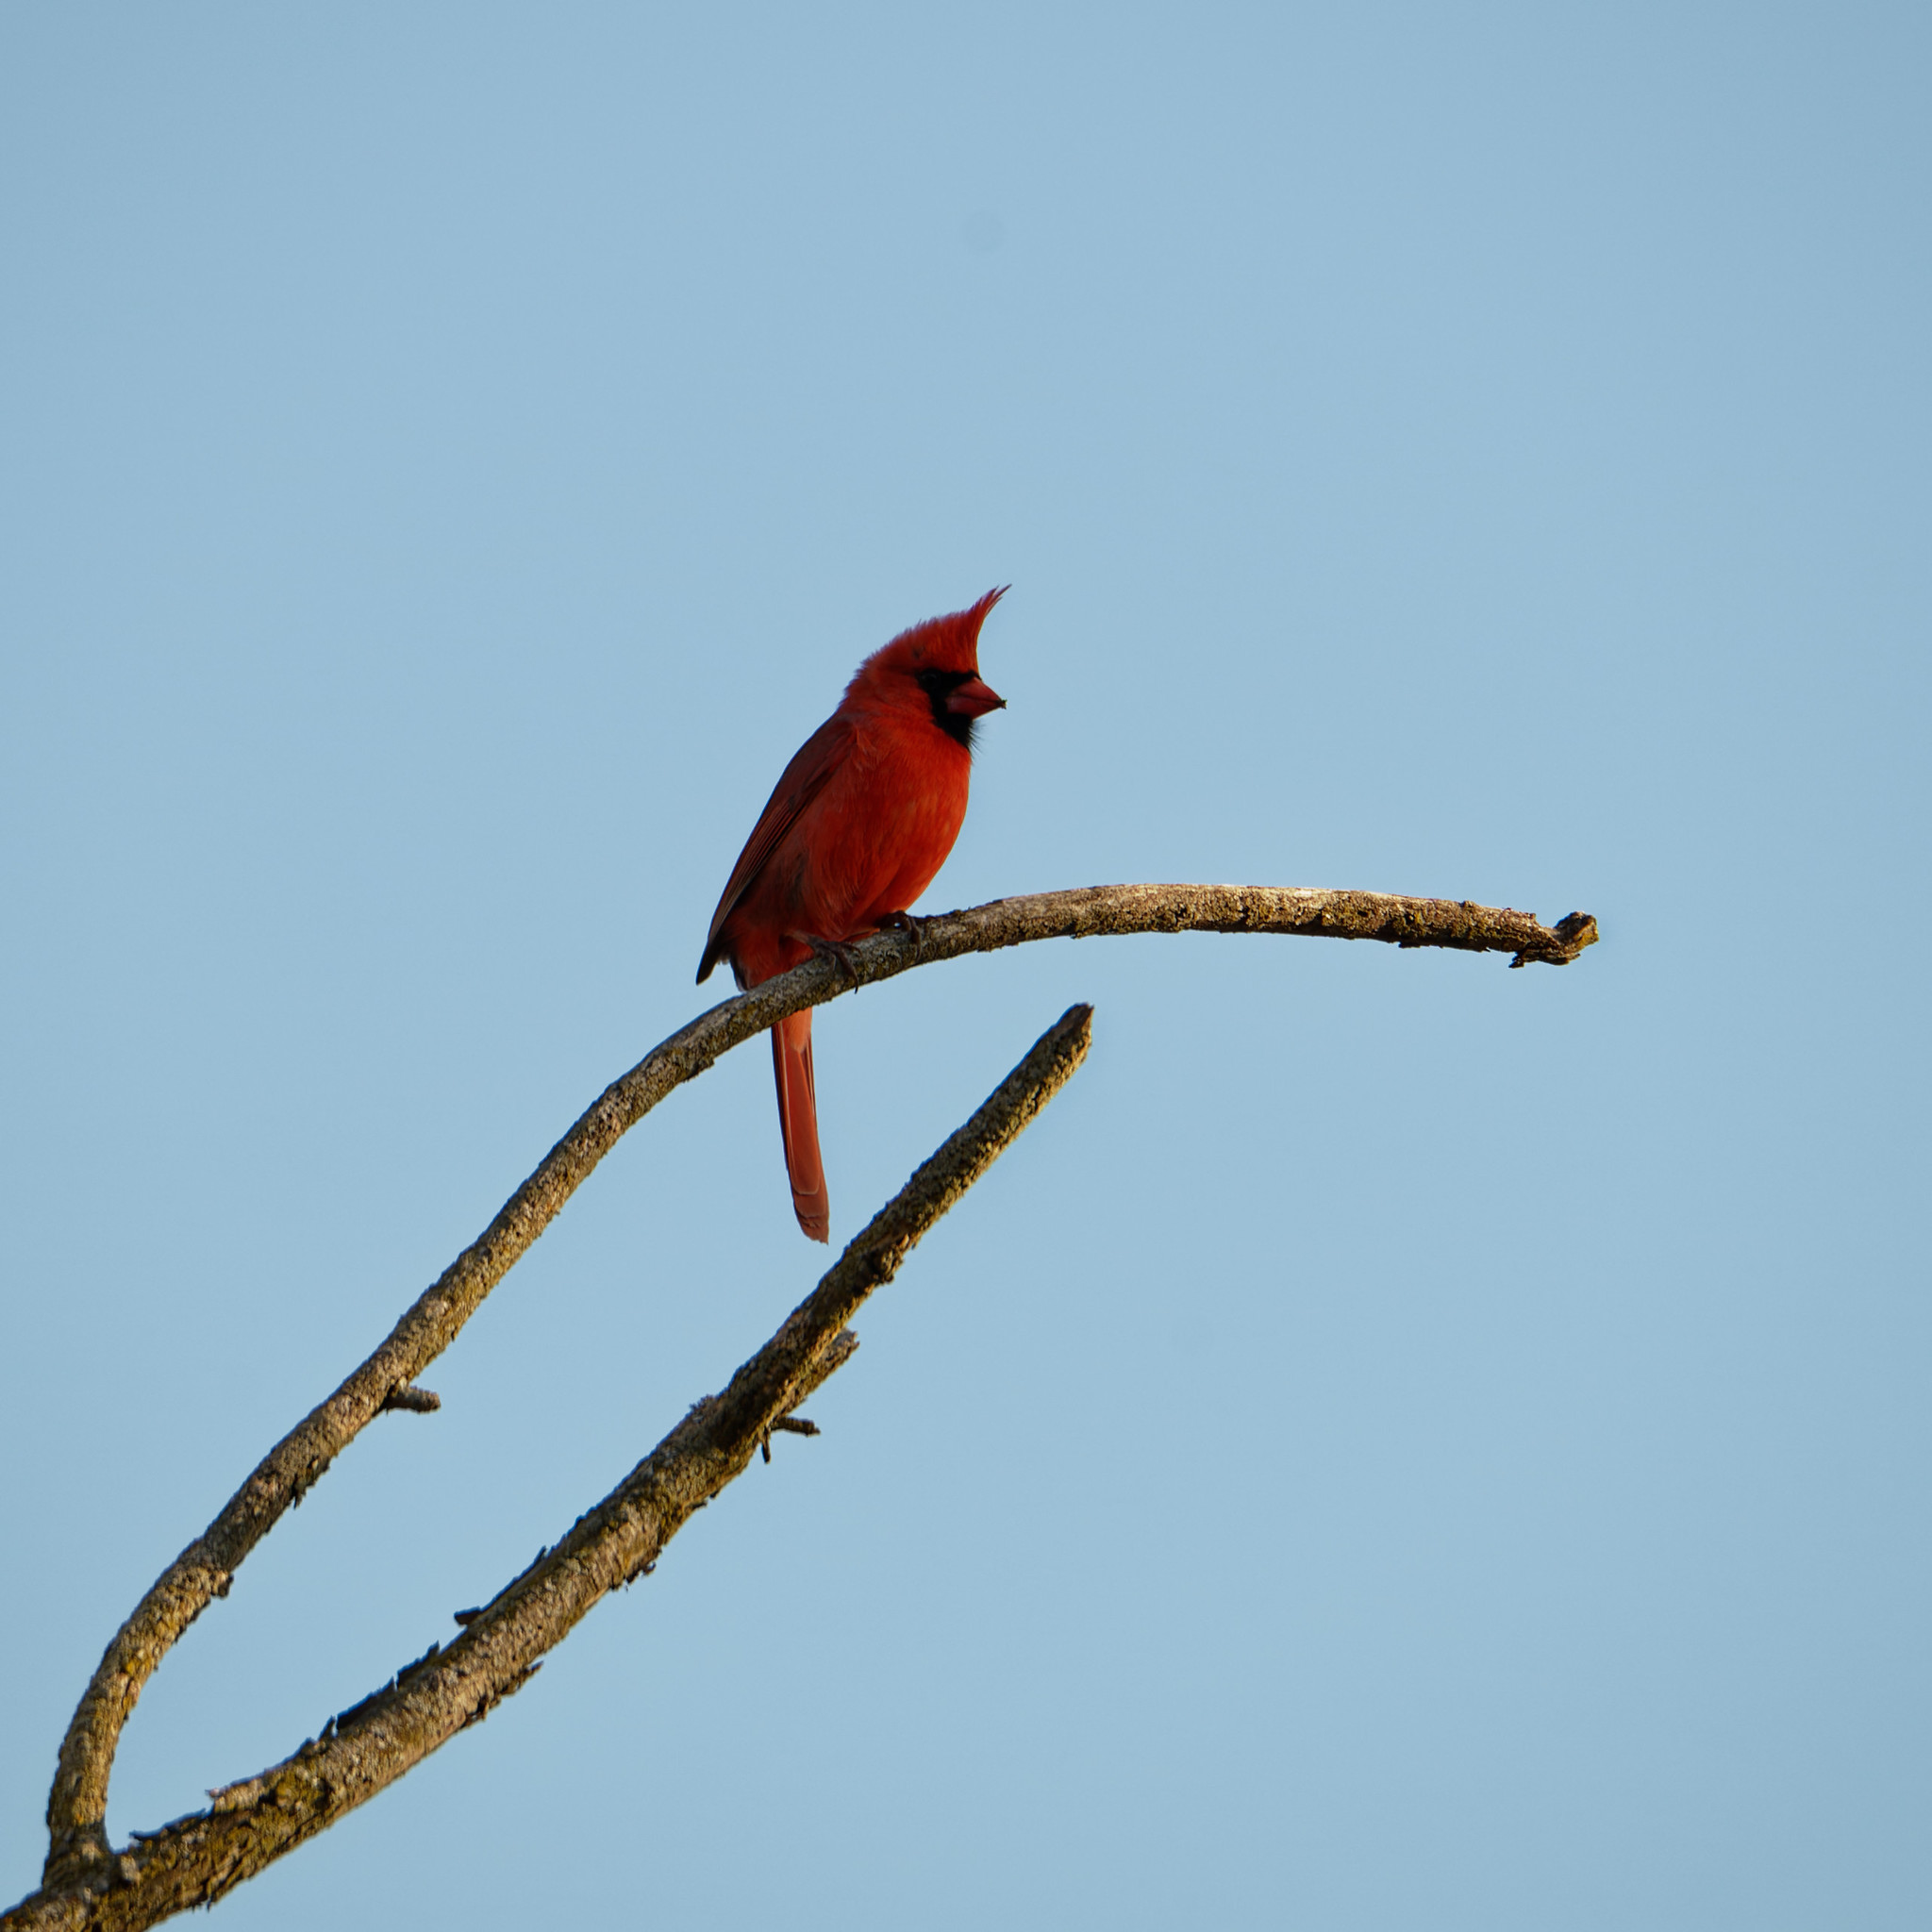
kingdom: Animalia
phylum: Chordata
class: Aves
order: Passeriformes
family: Cardinalidae
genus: Cardinalis
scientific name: Cardinalis cardinalis
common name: Northern cardinal
